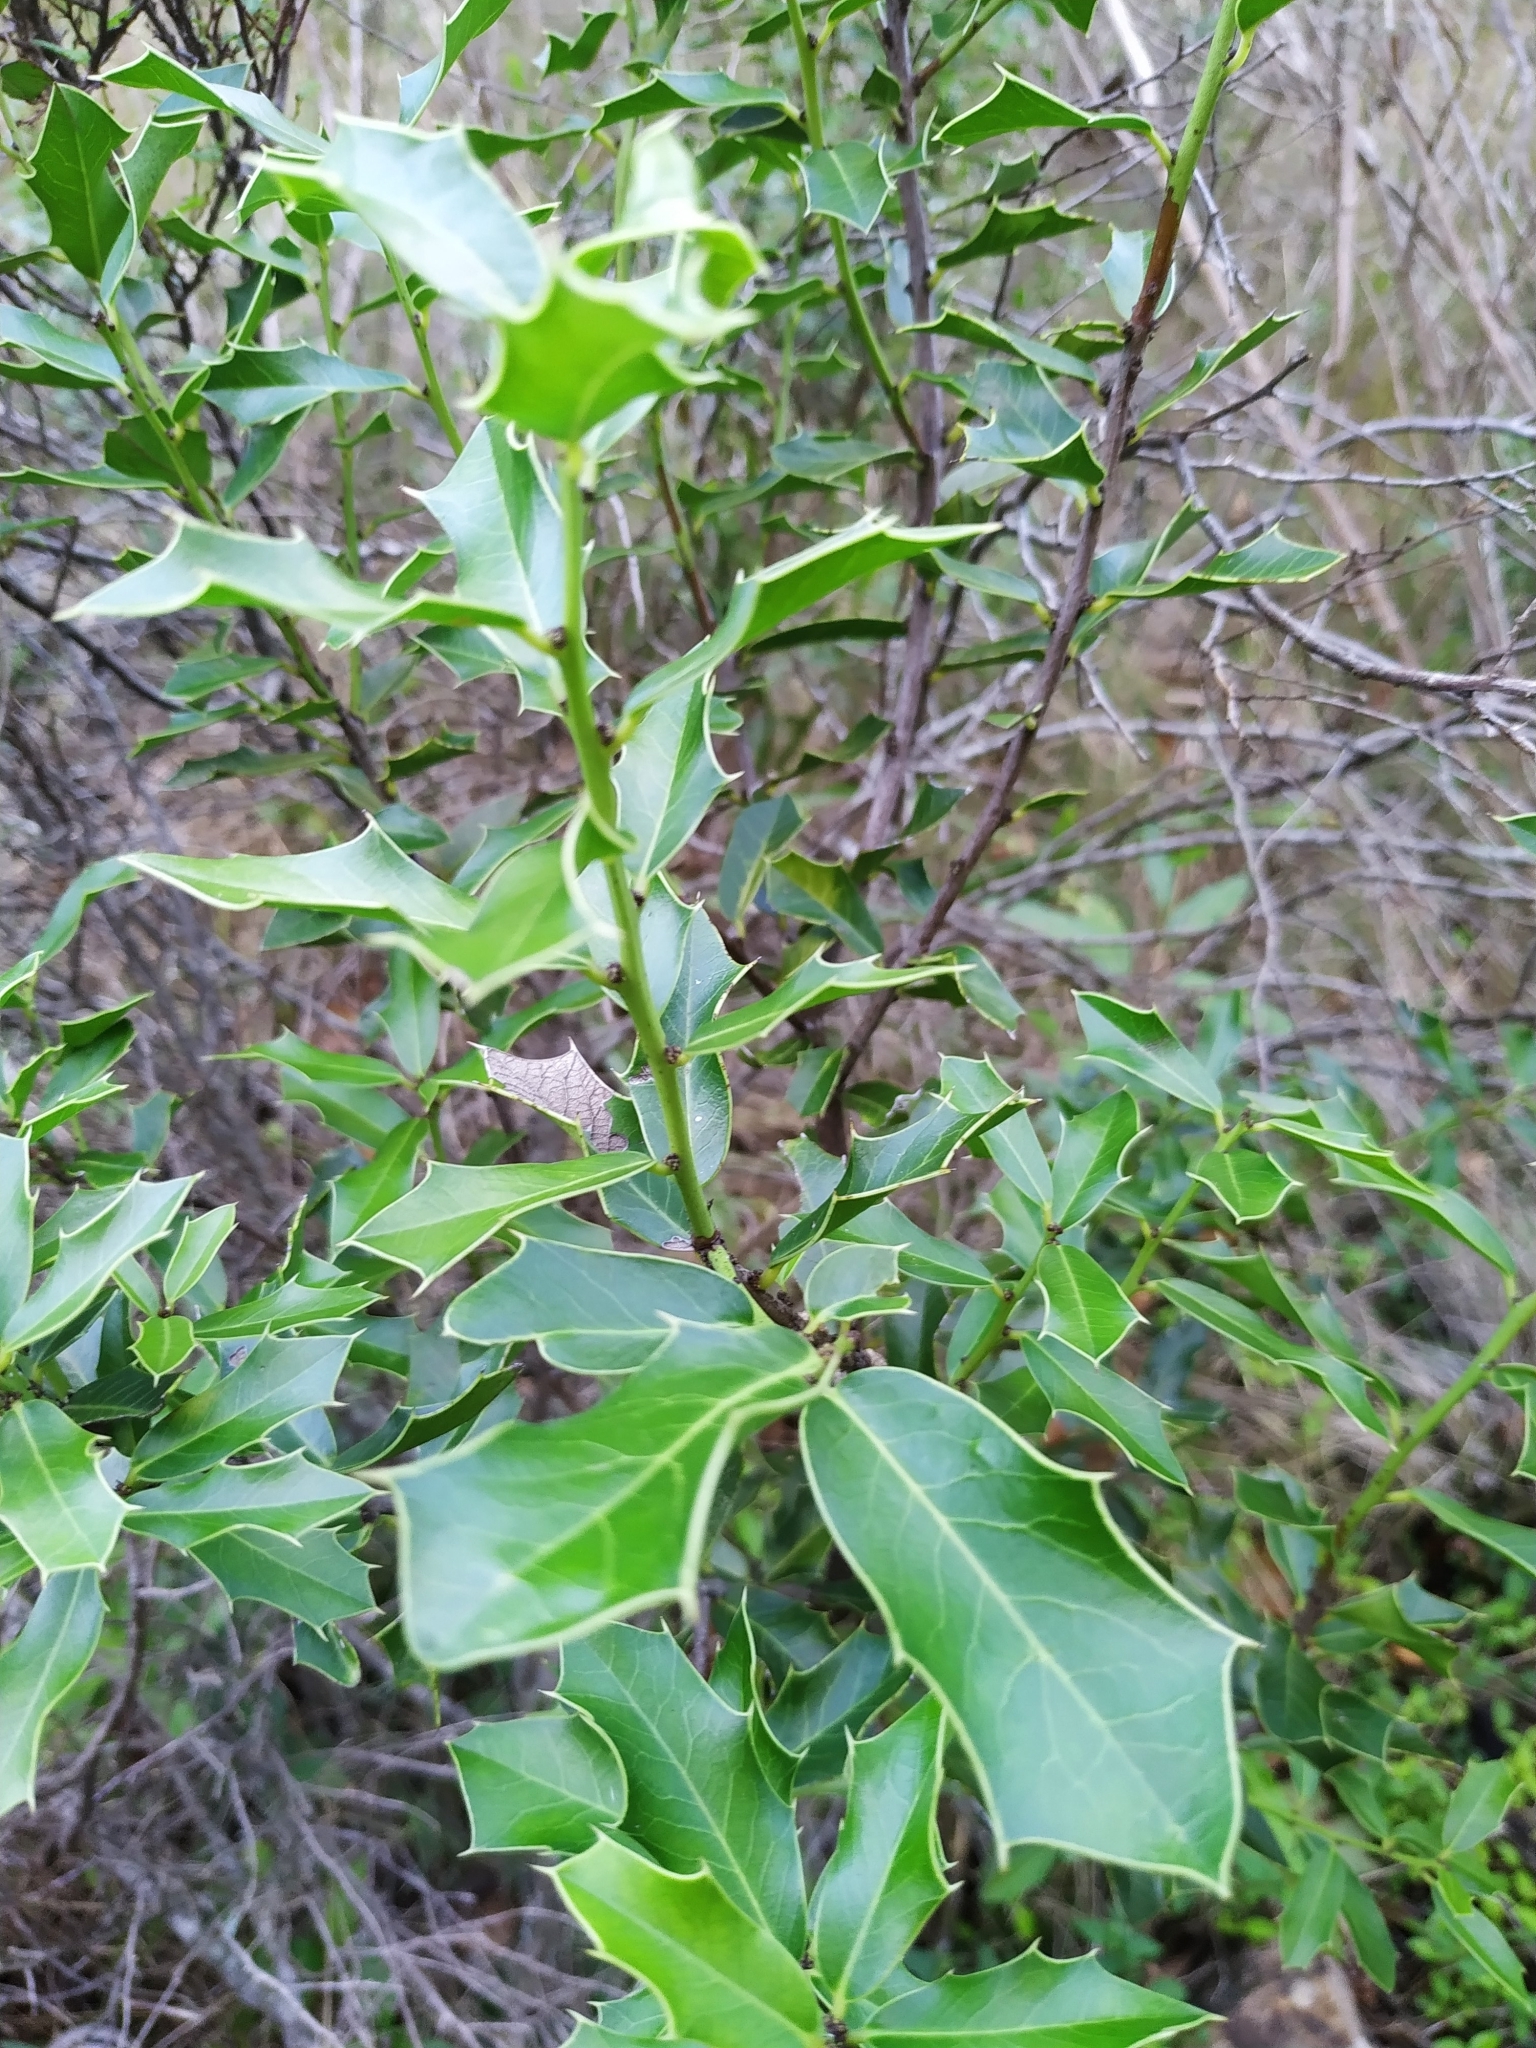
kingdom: Plantae
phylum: Tracheophyta
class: Magnoliopsida
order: Celastrales
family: Celastraceae
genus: Monteverdia
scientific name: Monteverdia
